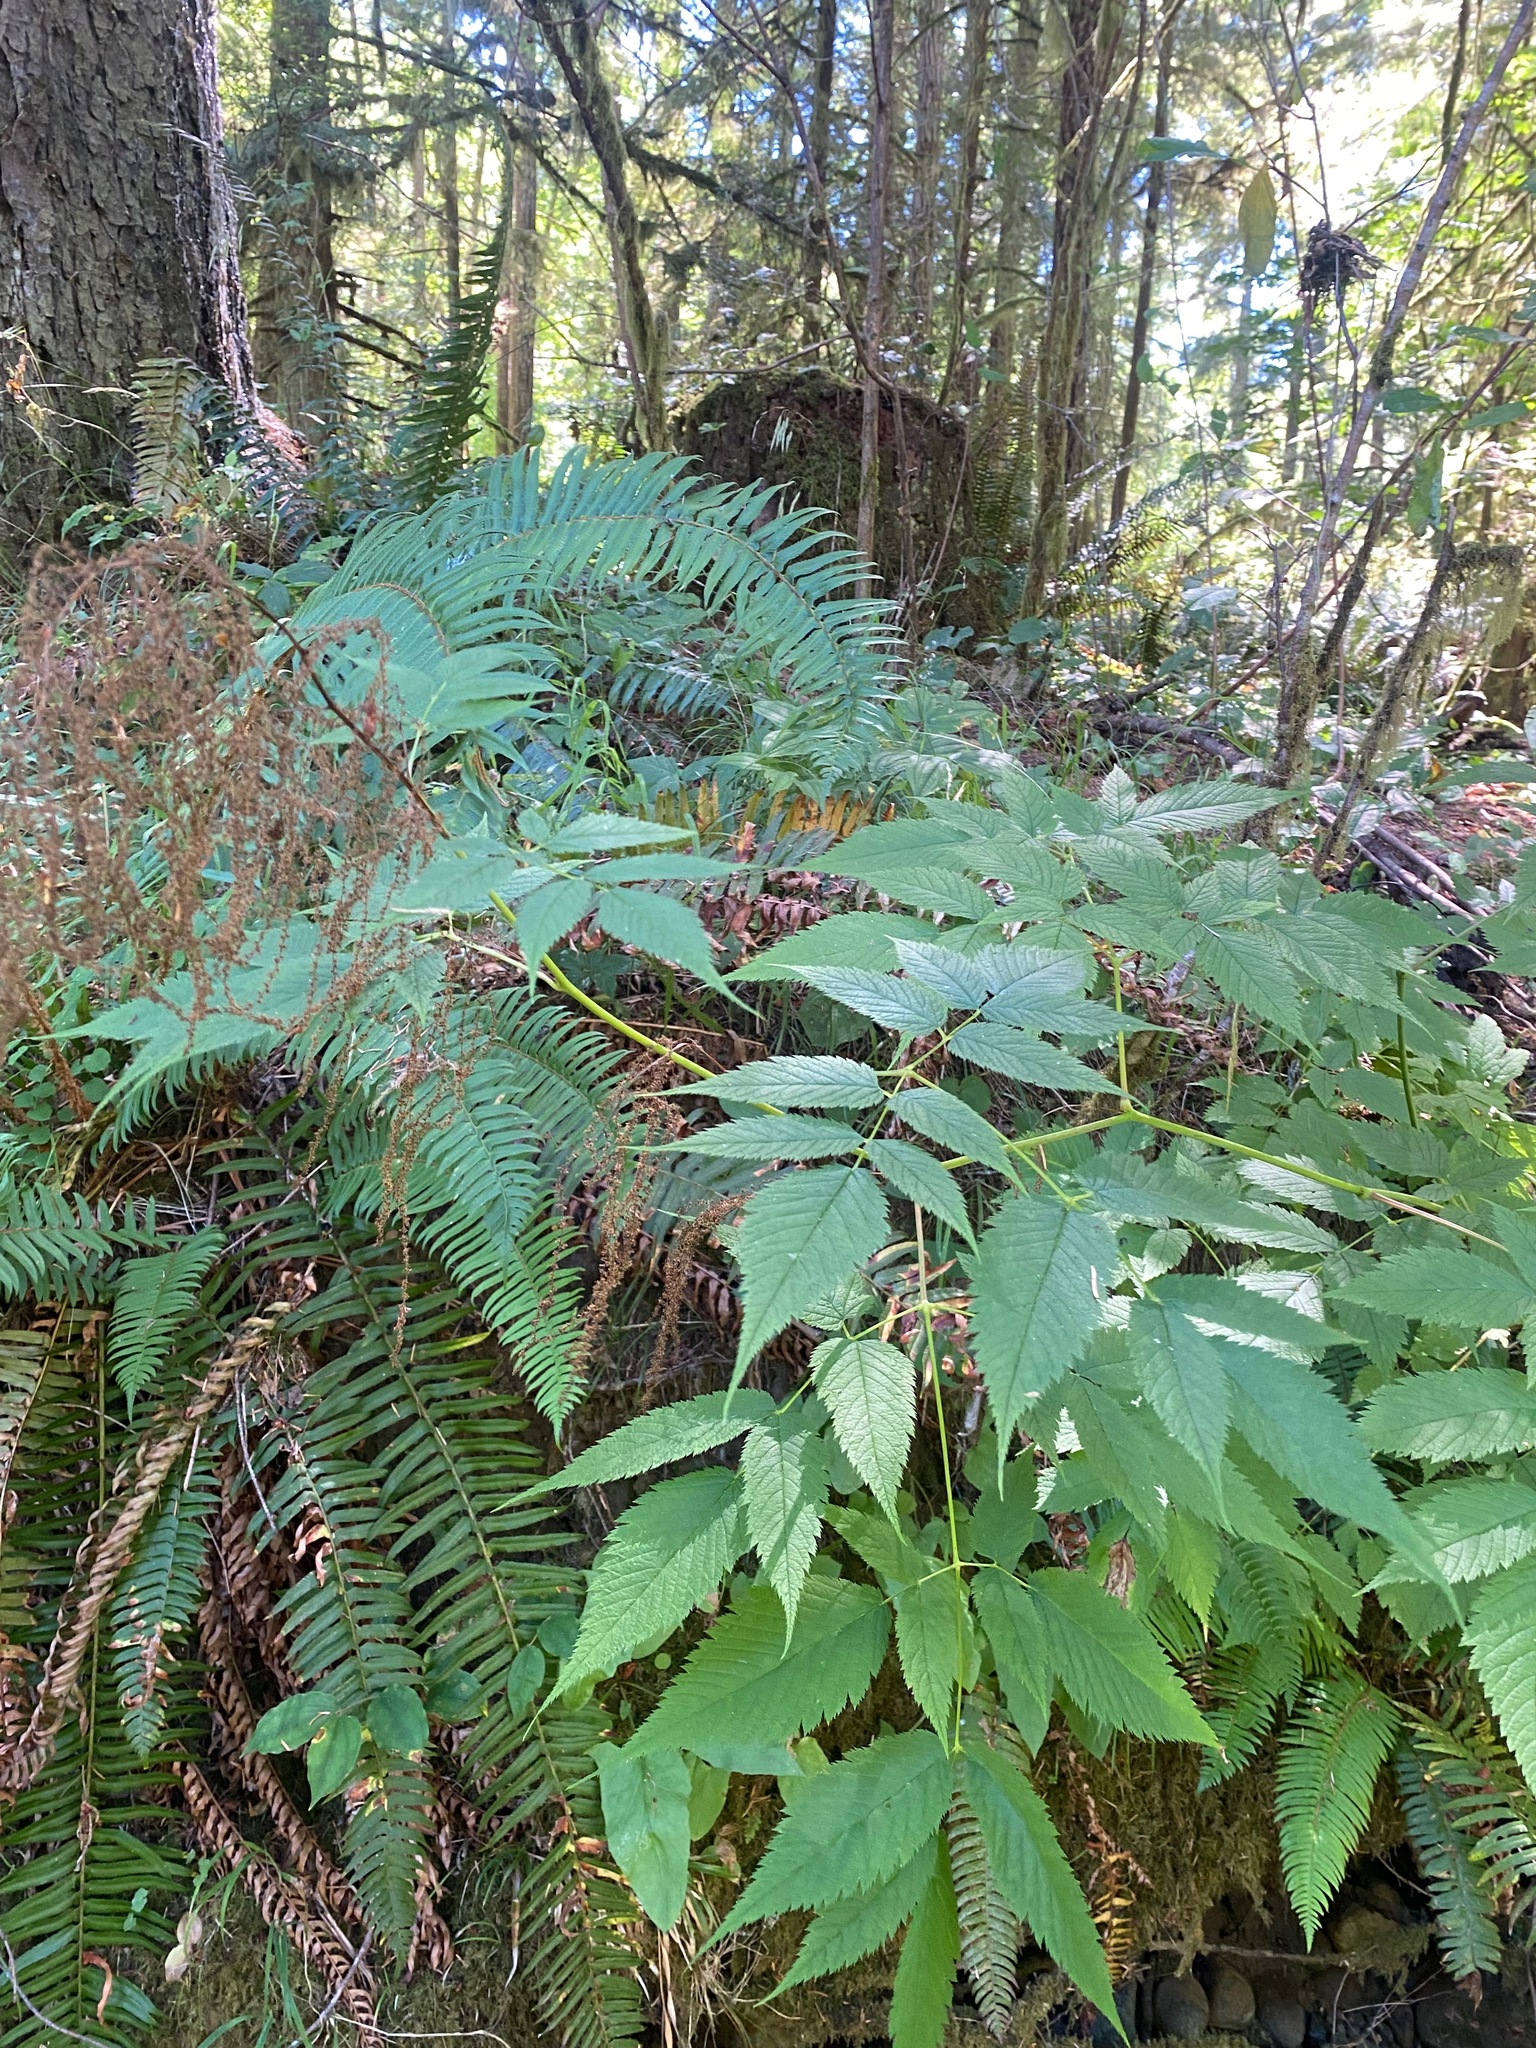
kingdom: Plantae
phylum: Tracheophyta
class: Magnoliopsida
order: Rosales
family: Rosaceae
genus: Aruncus
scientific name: Aruncus dioicus
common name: Buck's-beard
